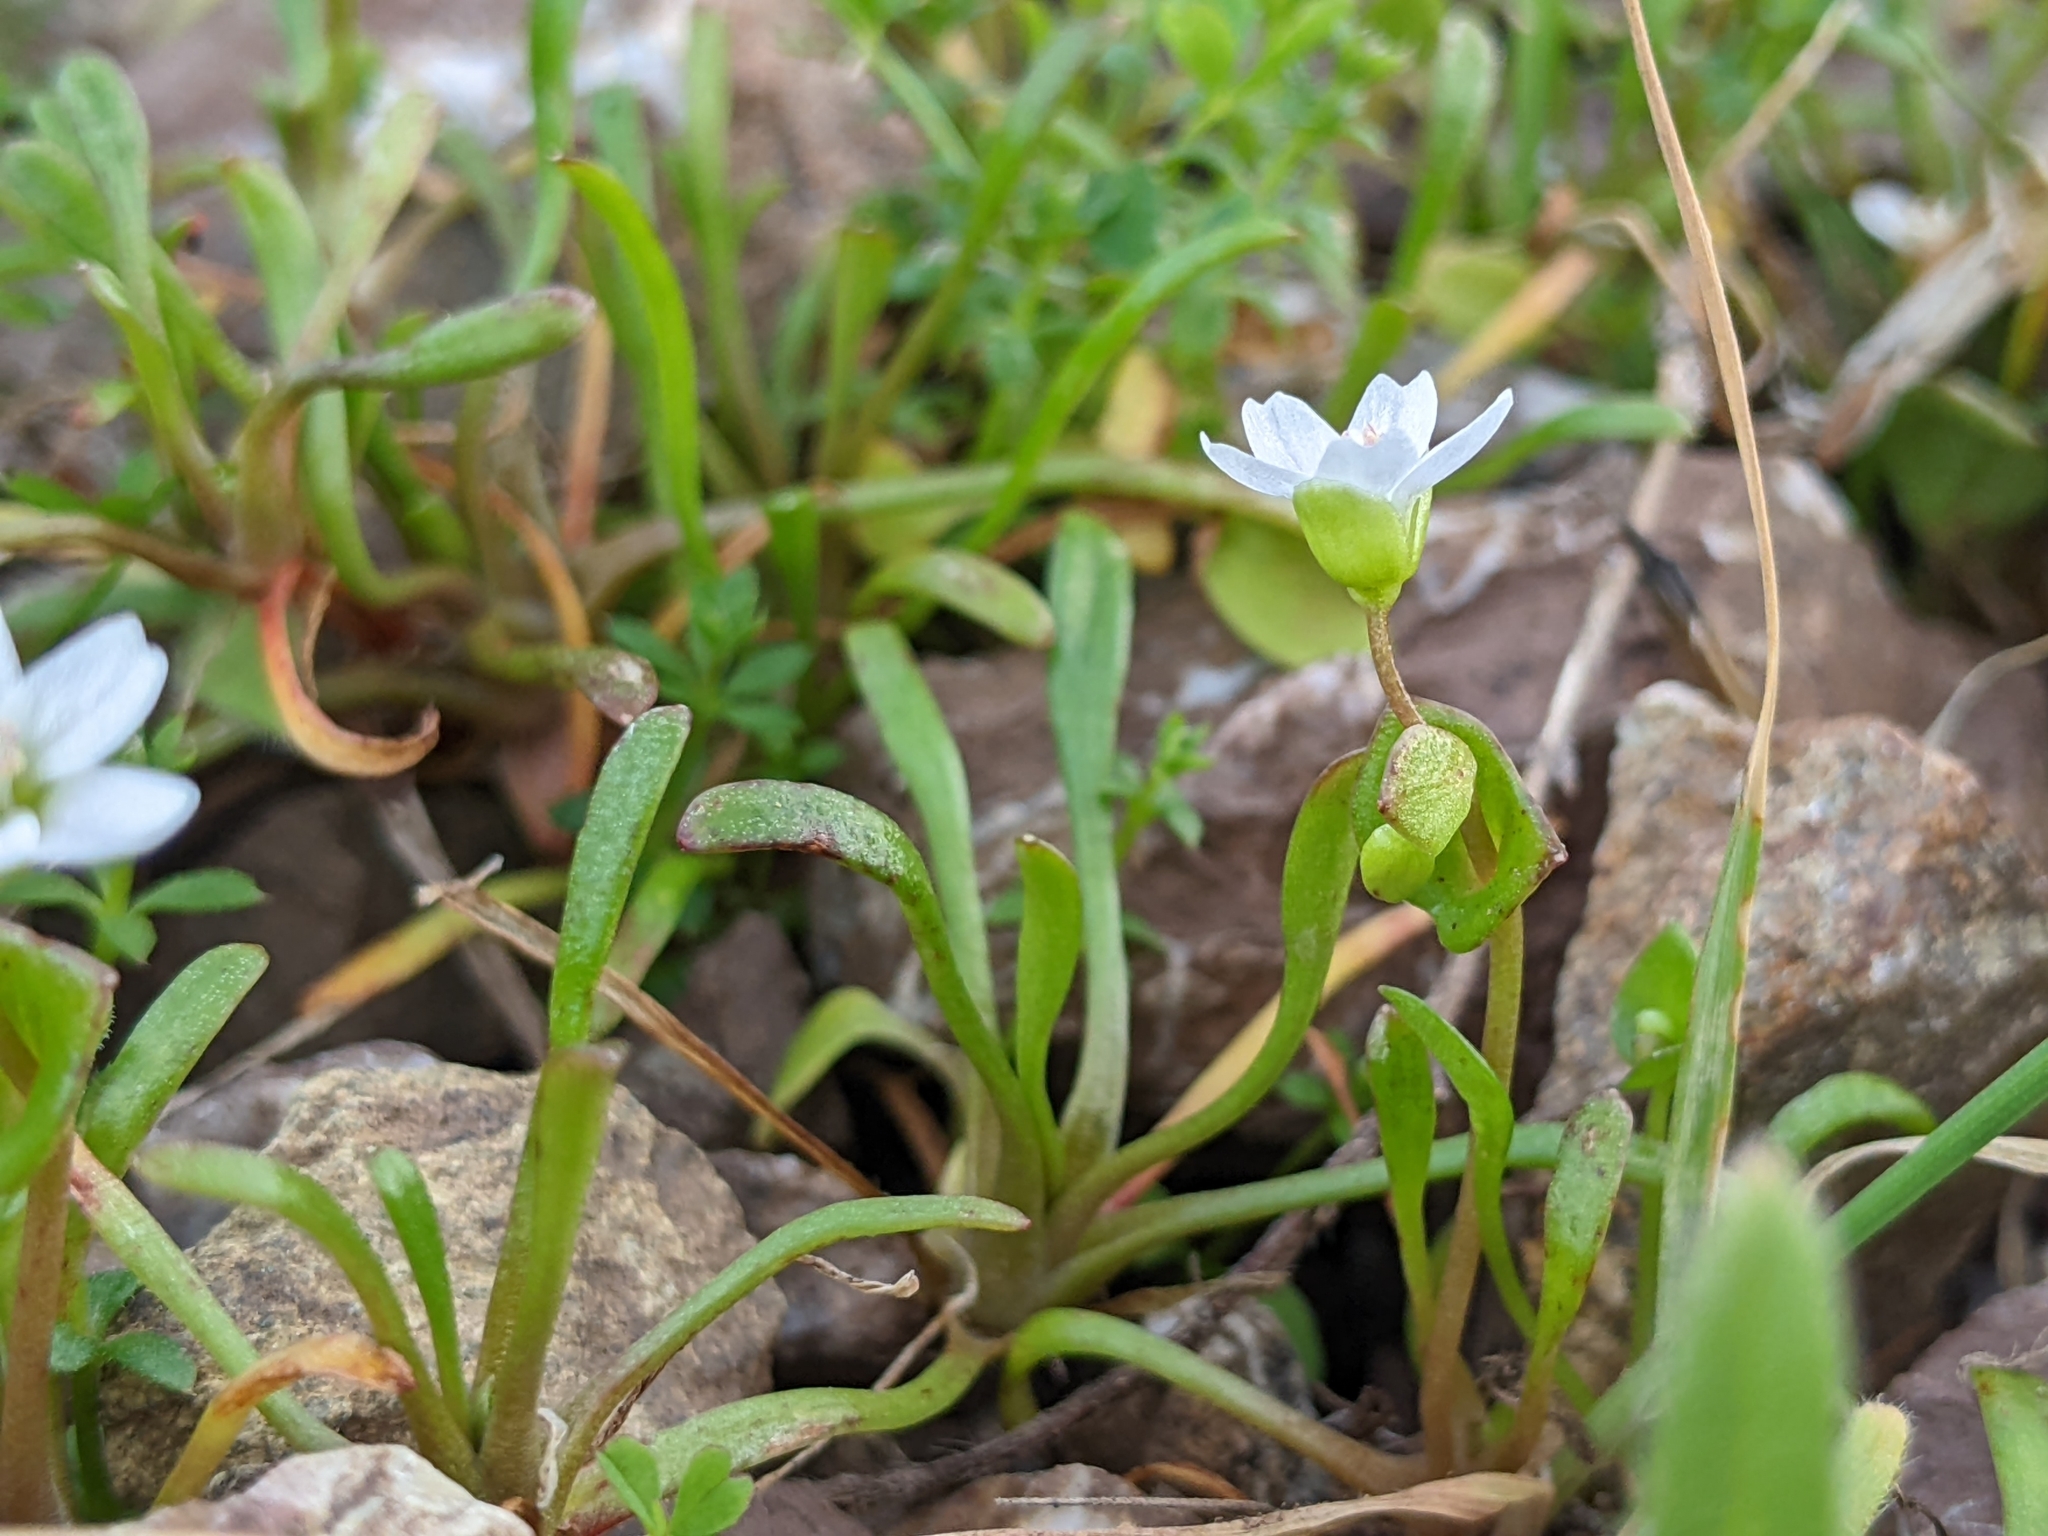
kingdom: Plantae
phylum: Tracheophyta
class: Magnoliopsida
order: Caryophyllales
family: Montiaceae
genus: Claytonia
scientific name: Claytonia parviflora
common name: Indian-lettuce
